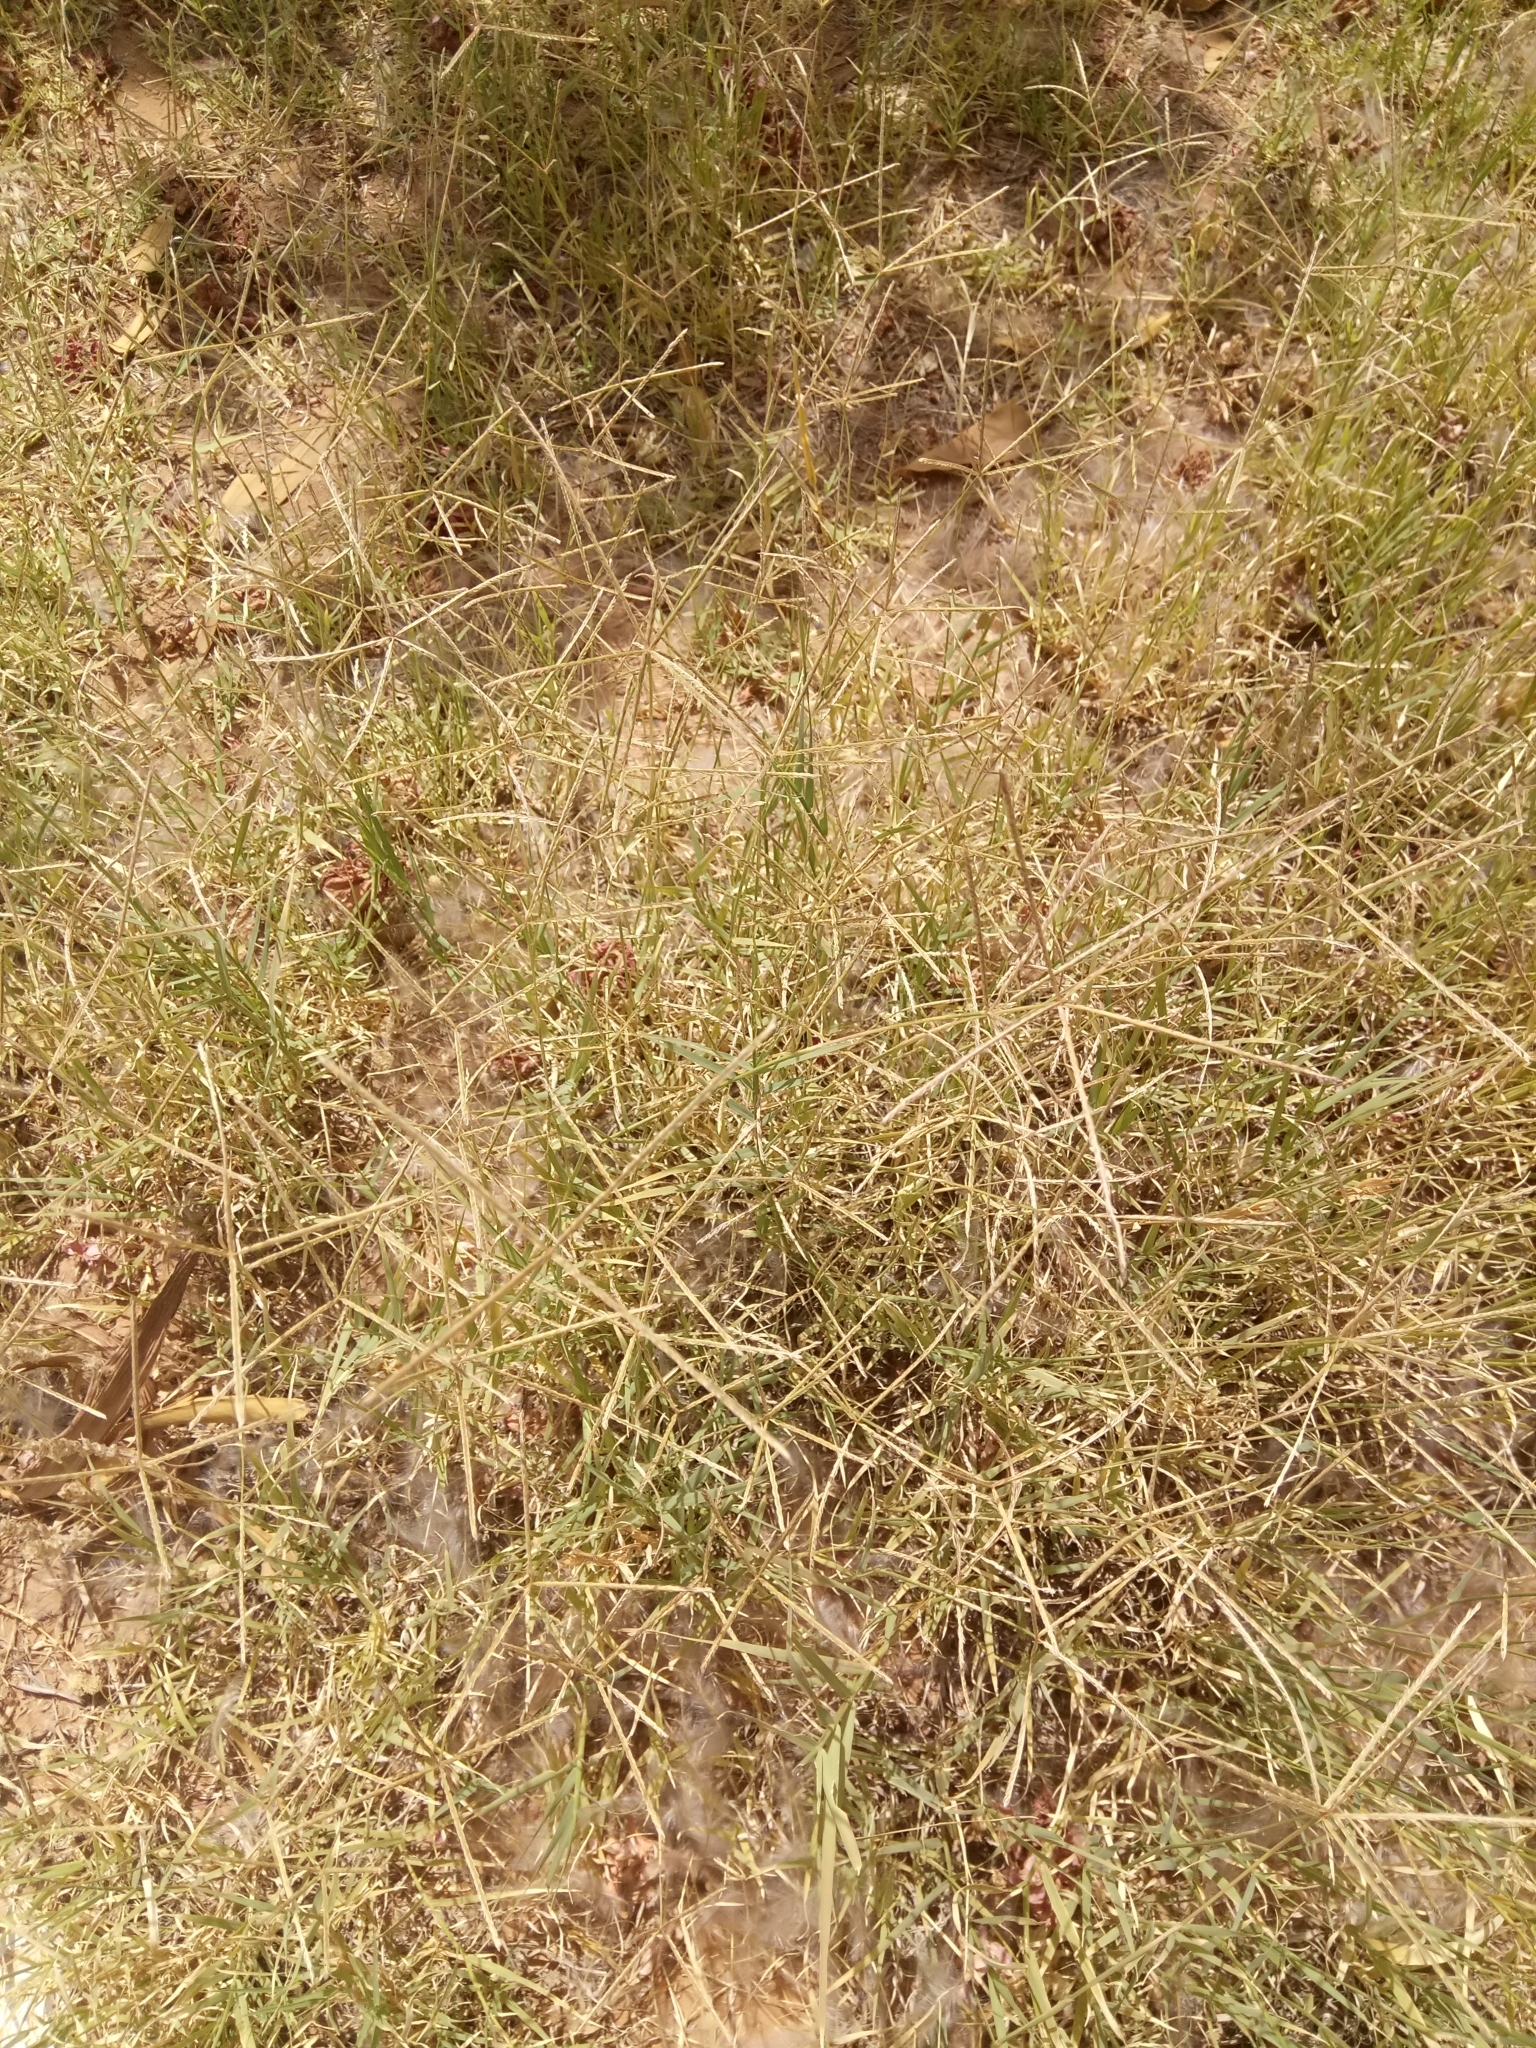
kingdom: Plantae
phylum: Tracheophyta
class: Liliopsida
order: Poales
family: Poaceae
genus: Cynodon
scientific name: Cynodon dactylon
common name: Bermuda grass
